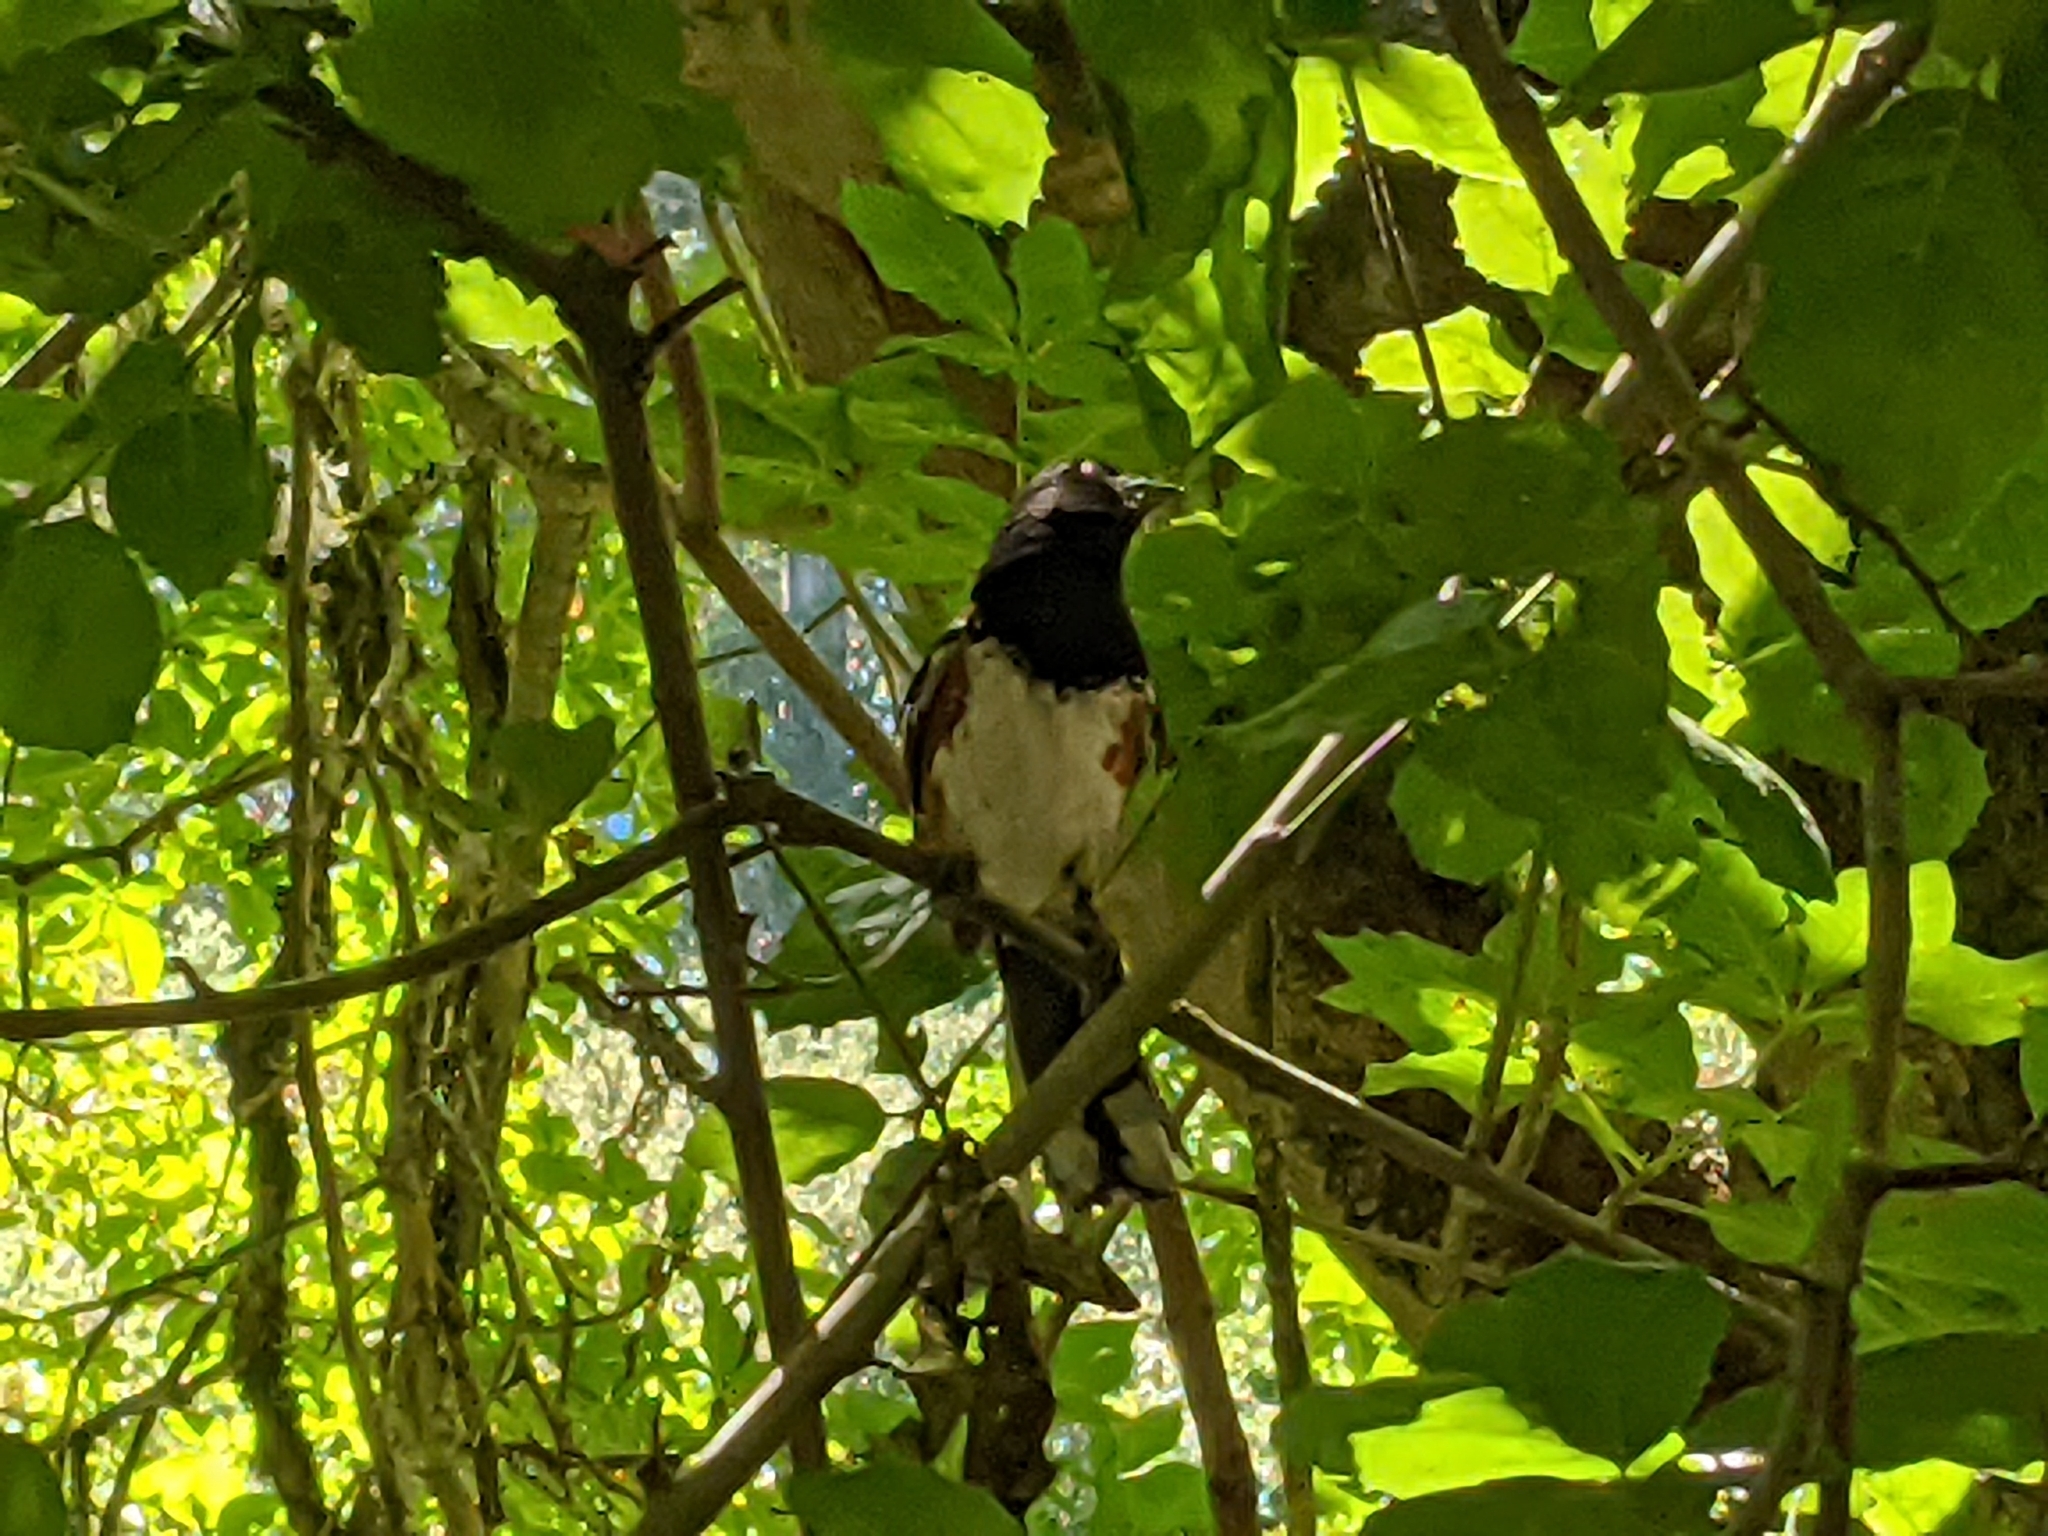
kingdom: Animalia
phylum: Chordata
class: Aves
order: Passeriformes
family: Passerellidae
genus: Pipilo
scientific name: Pipilo maculatus
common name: Spotted towhee
